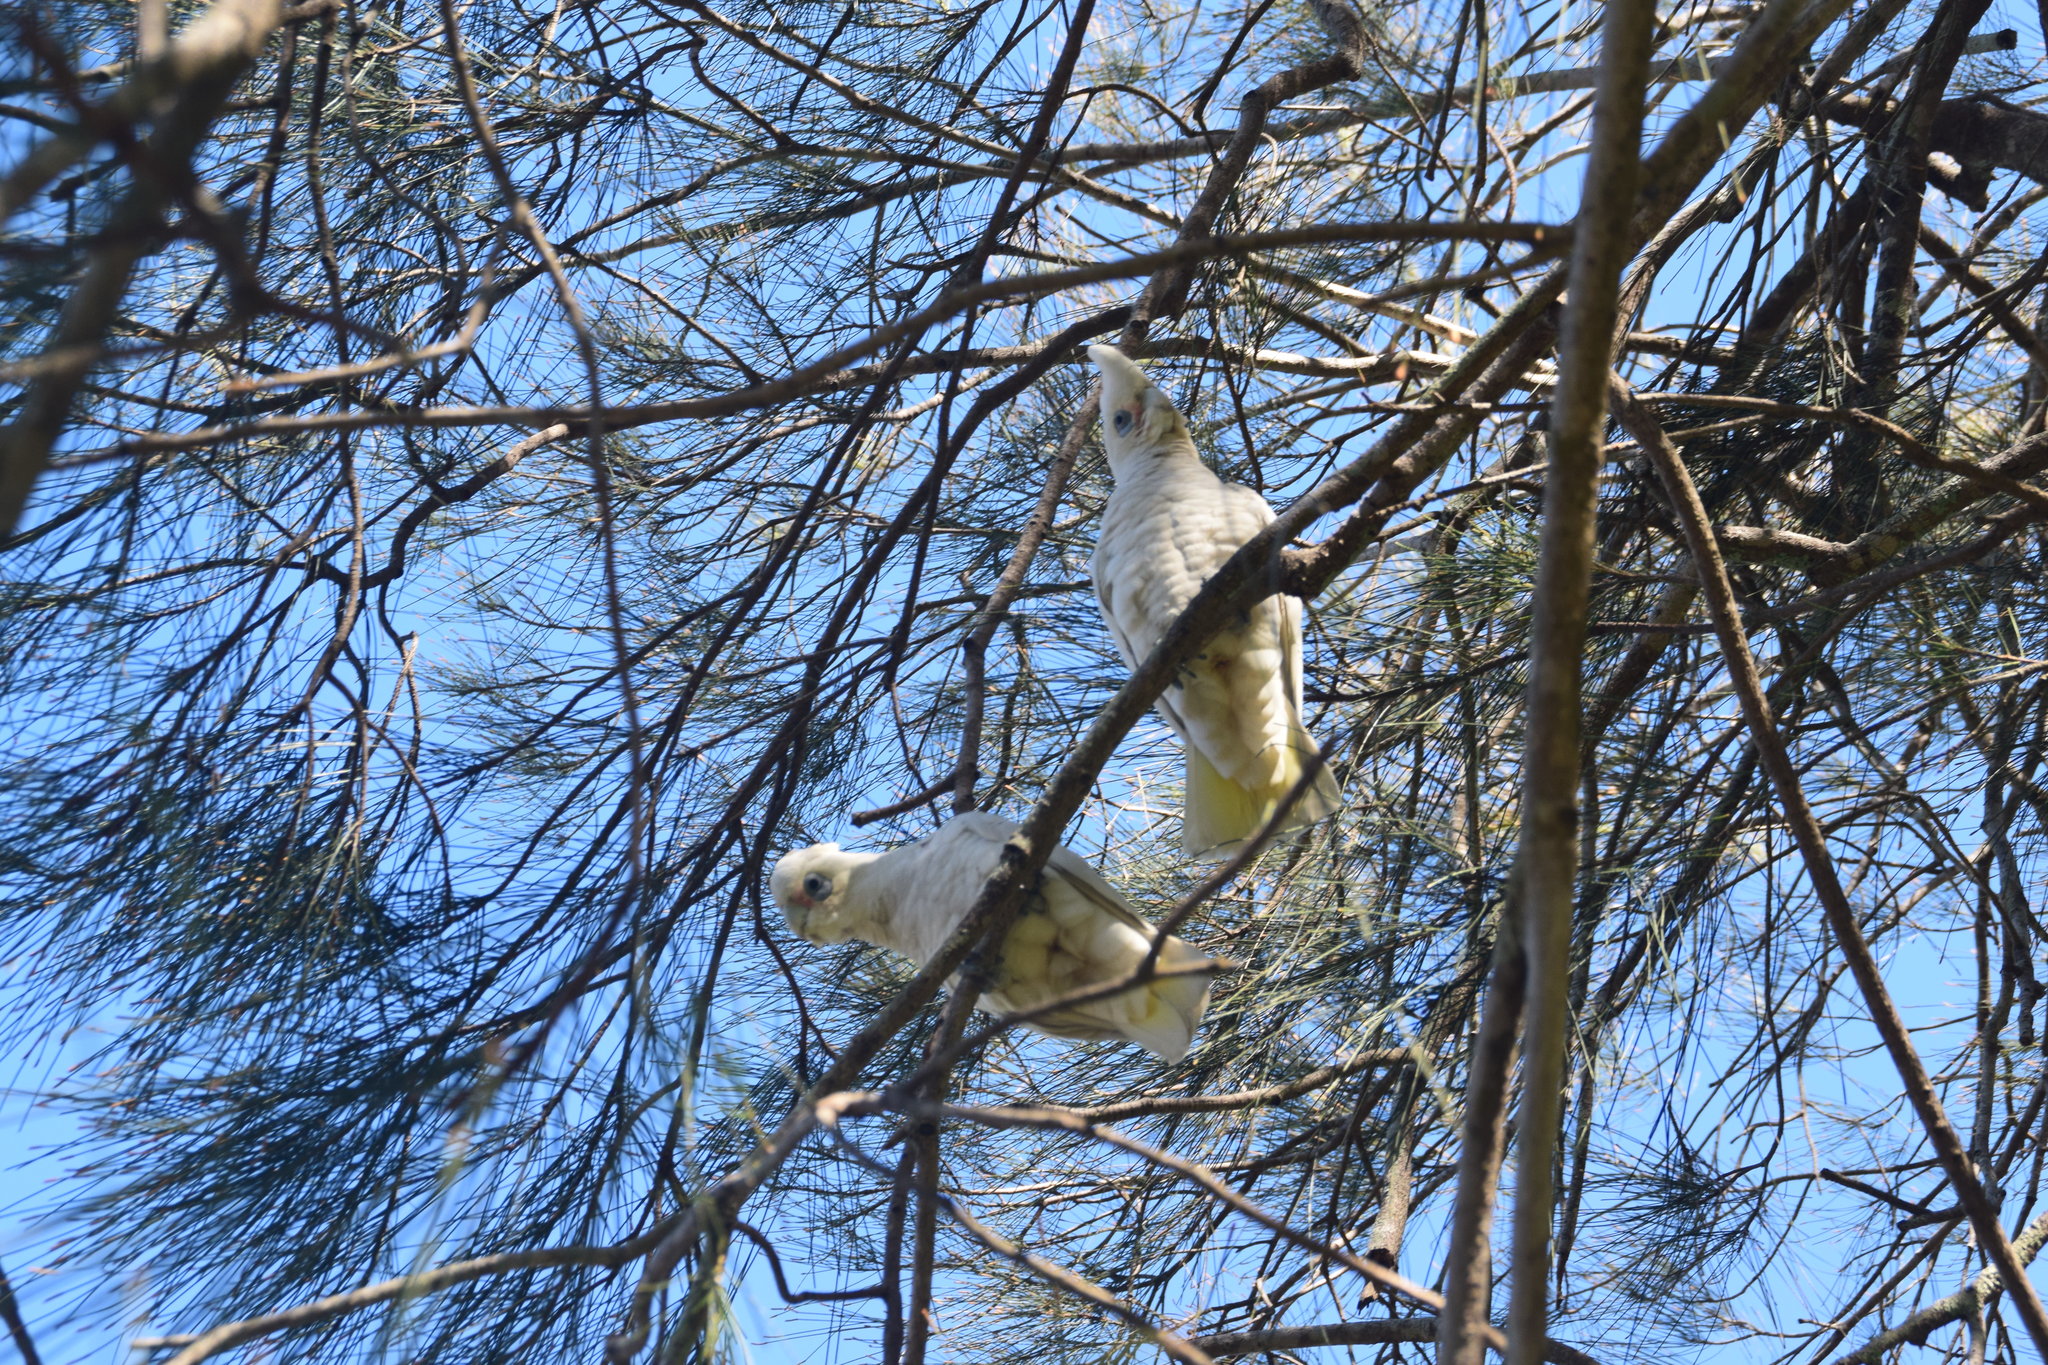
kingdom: Animalia
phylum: Chordata
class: Aves
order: Psittaciformes
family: Psittacidae
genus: Cacatua
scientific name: Cacatua sanguinea
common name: Little corella
